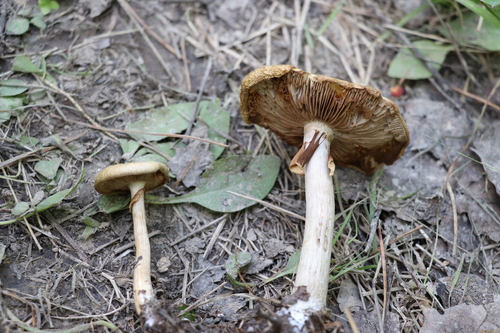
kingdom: Fungi
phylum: Basidiomycota
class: Agaricomycetes
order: Agaricales
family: Strophariaceae
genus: Agrocybe
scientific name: Agrocybe praecox
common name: Spring fieldcap
